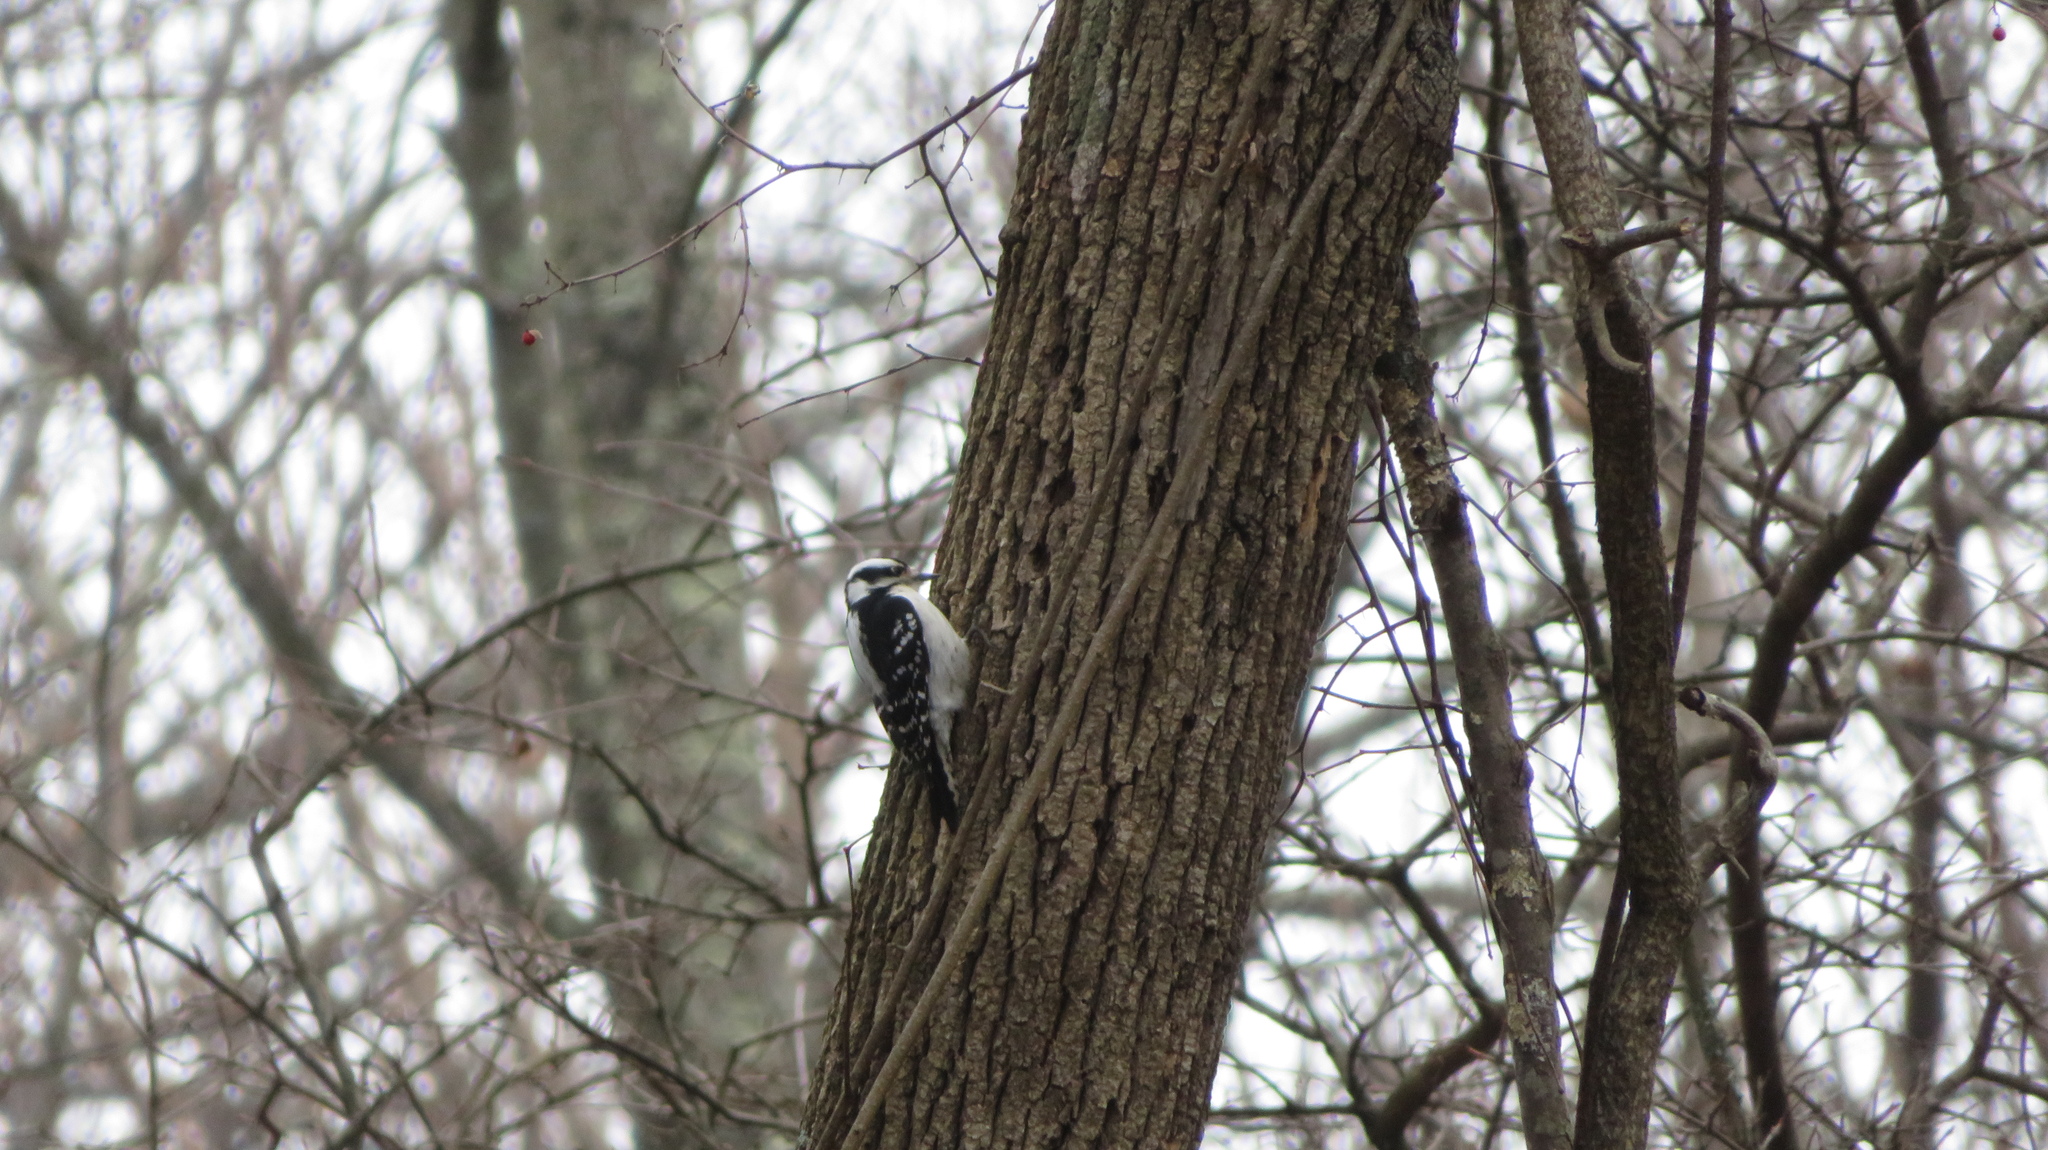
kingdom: Animalia
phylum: Chordata
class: Aves
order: Piciformes
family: Picidae
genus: Dryobates
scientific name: Dryobates pubescens
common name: Downy woodpecker
